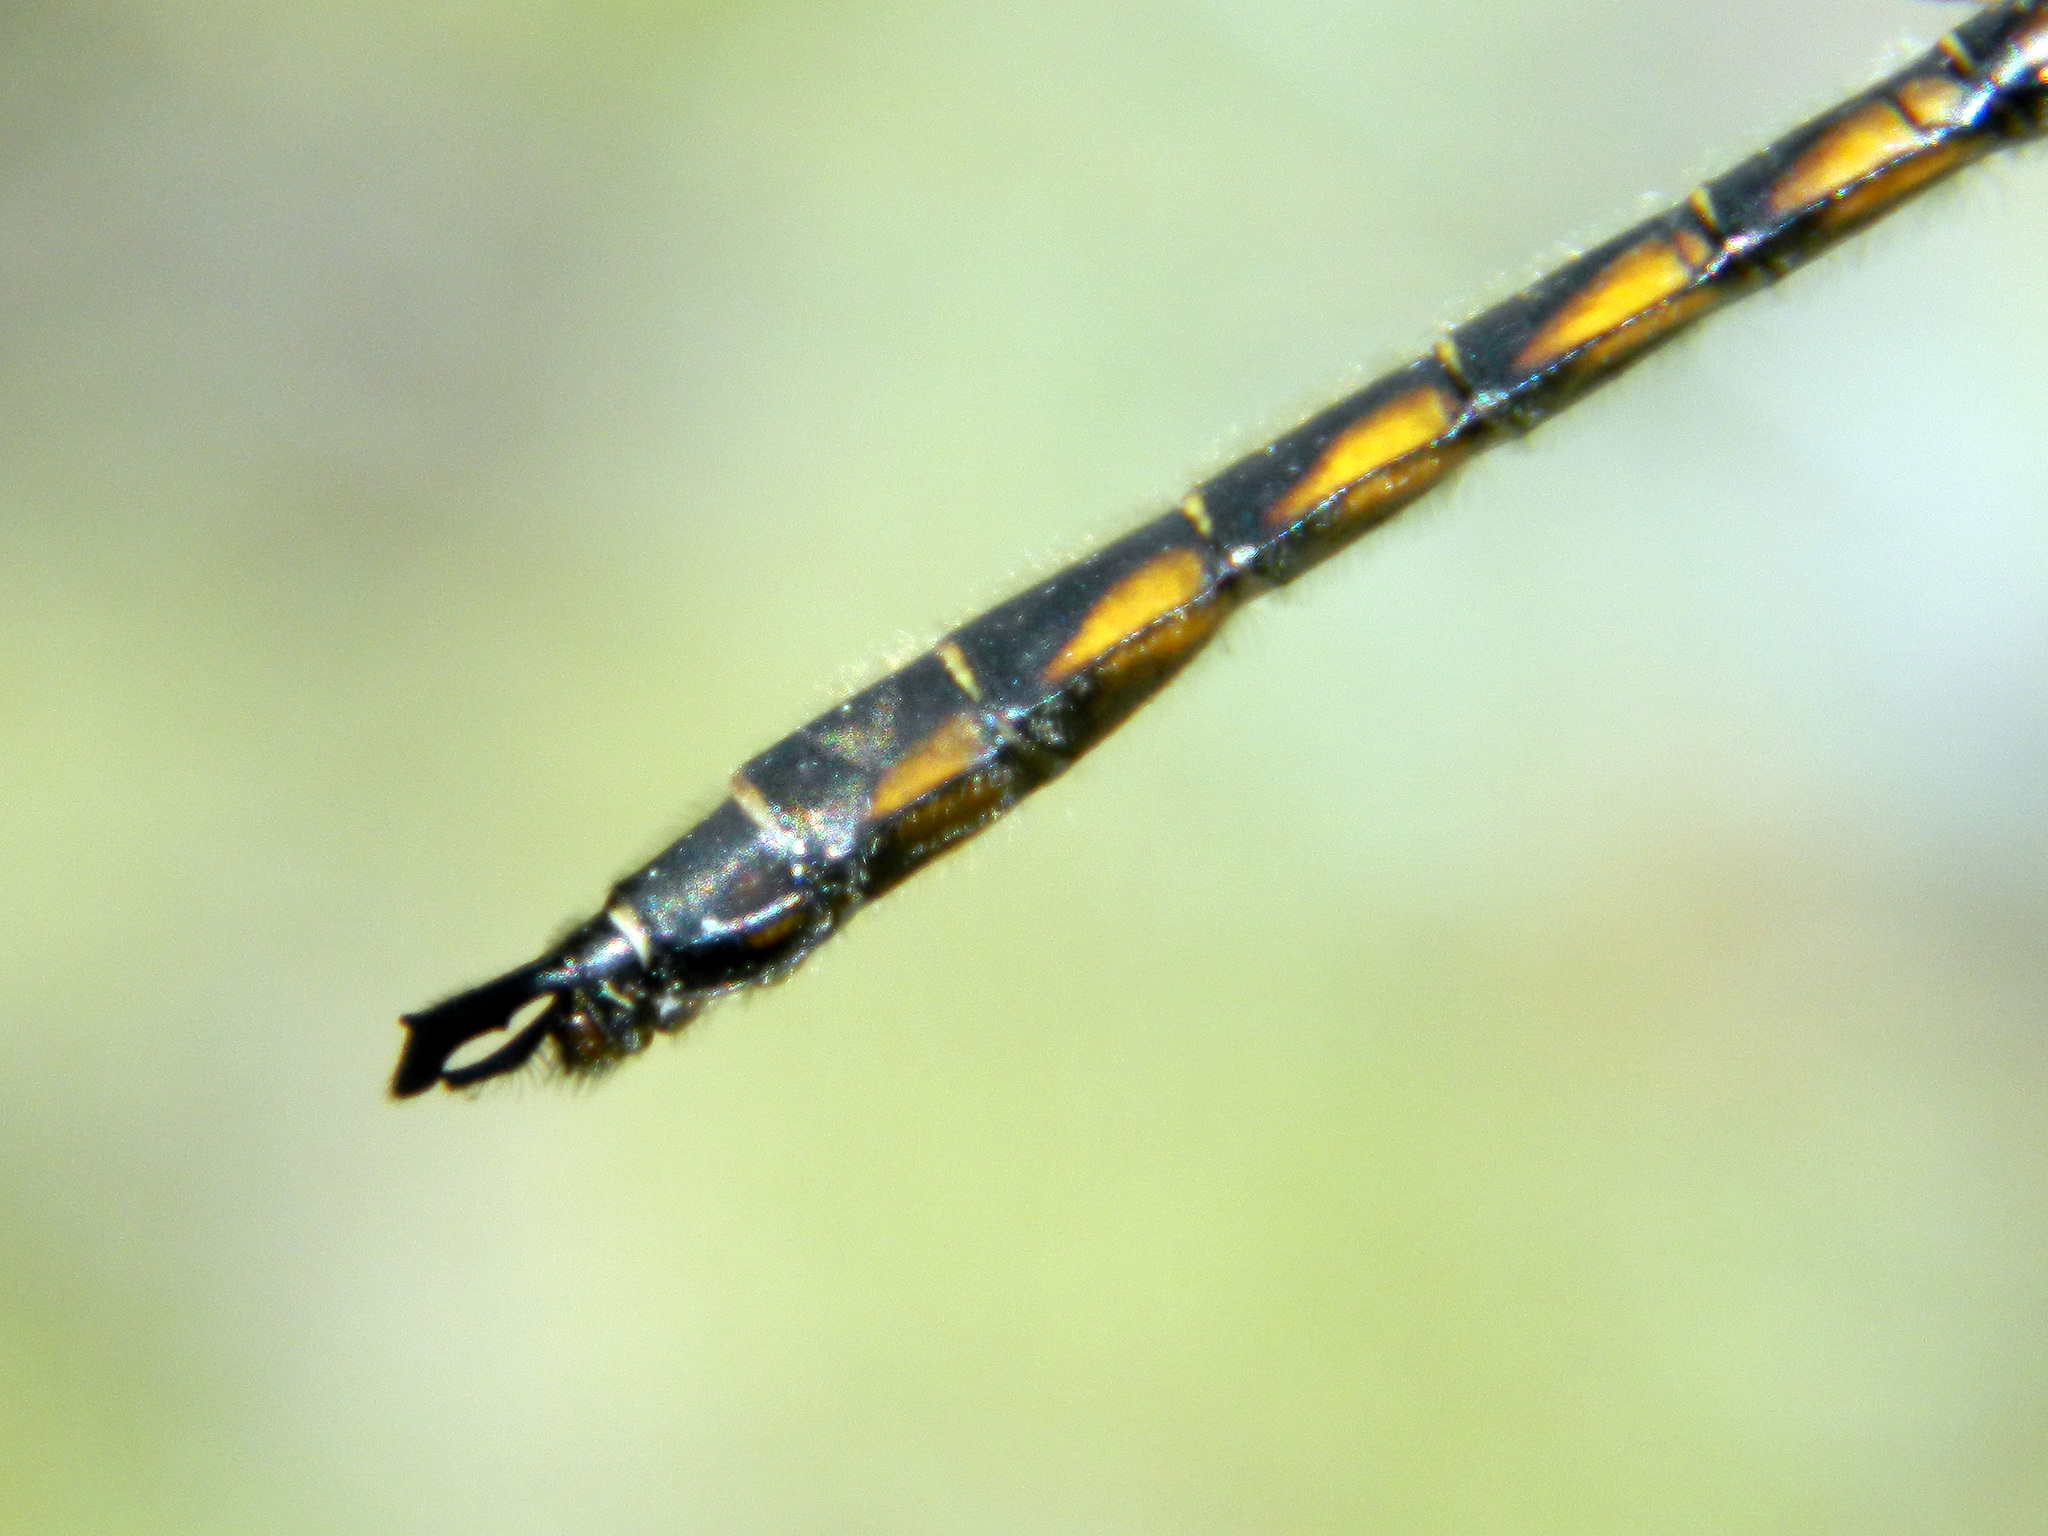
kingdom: Animalia
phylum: Arthropoda
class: Insecta
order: Odonata
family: Corduliidae
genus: Epitheca
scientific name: Epitheca canis
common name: Beaverpond baskettail
